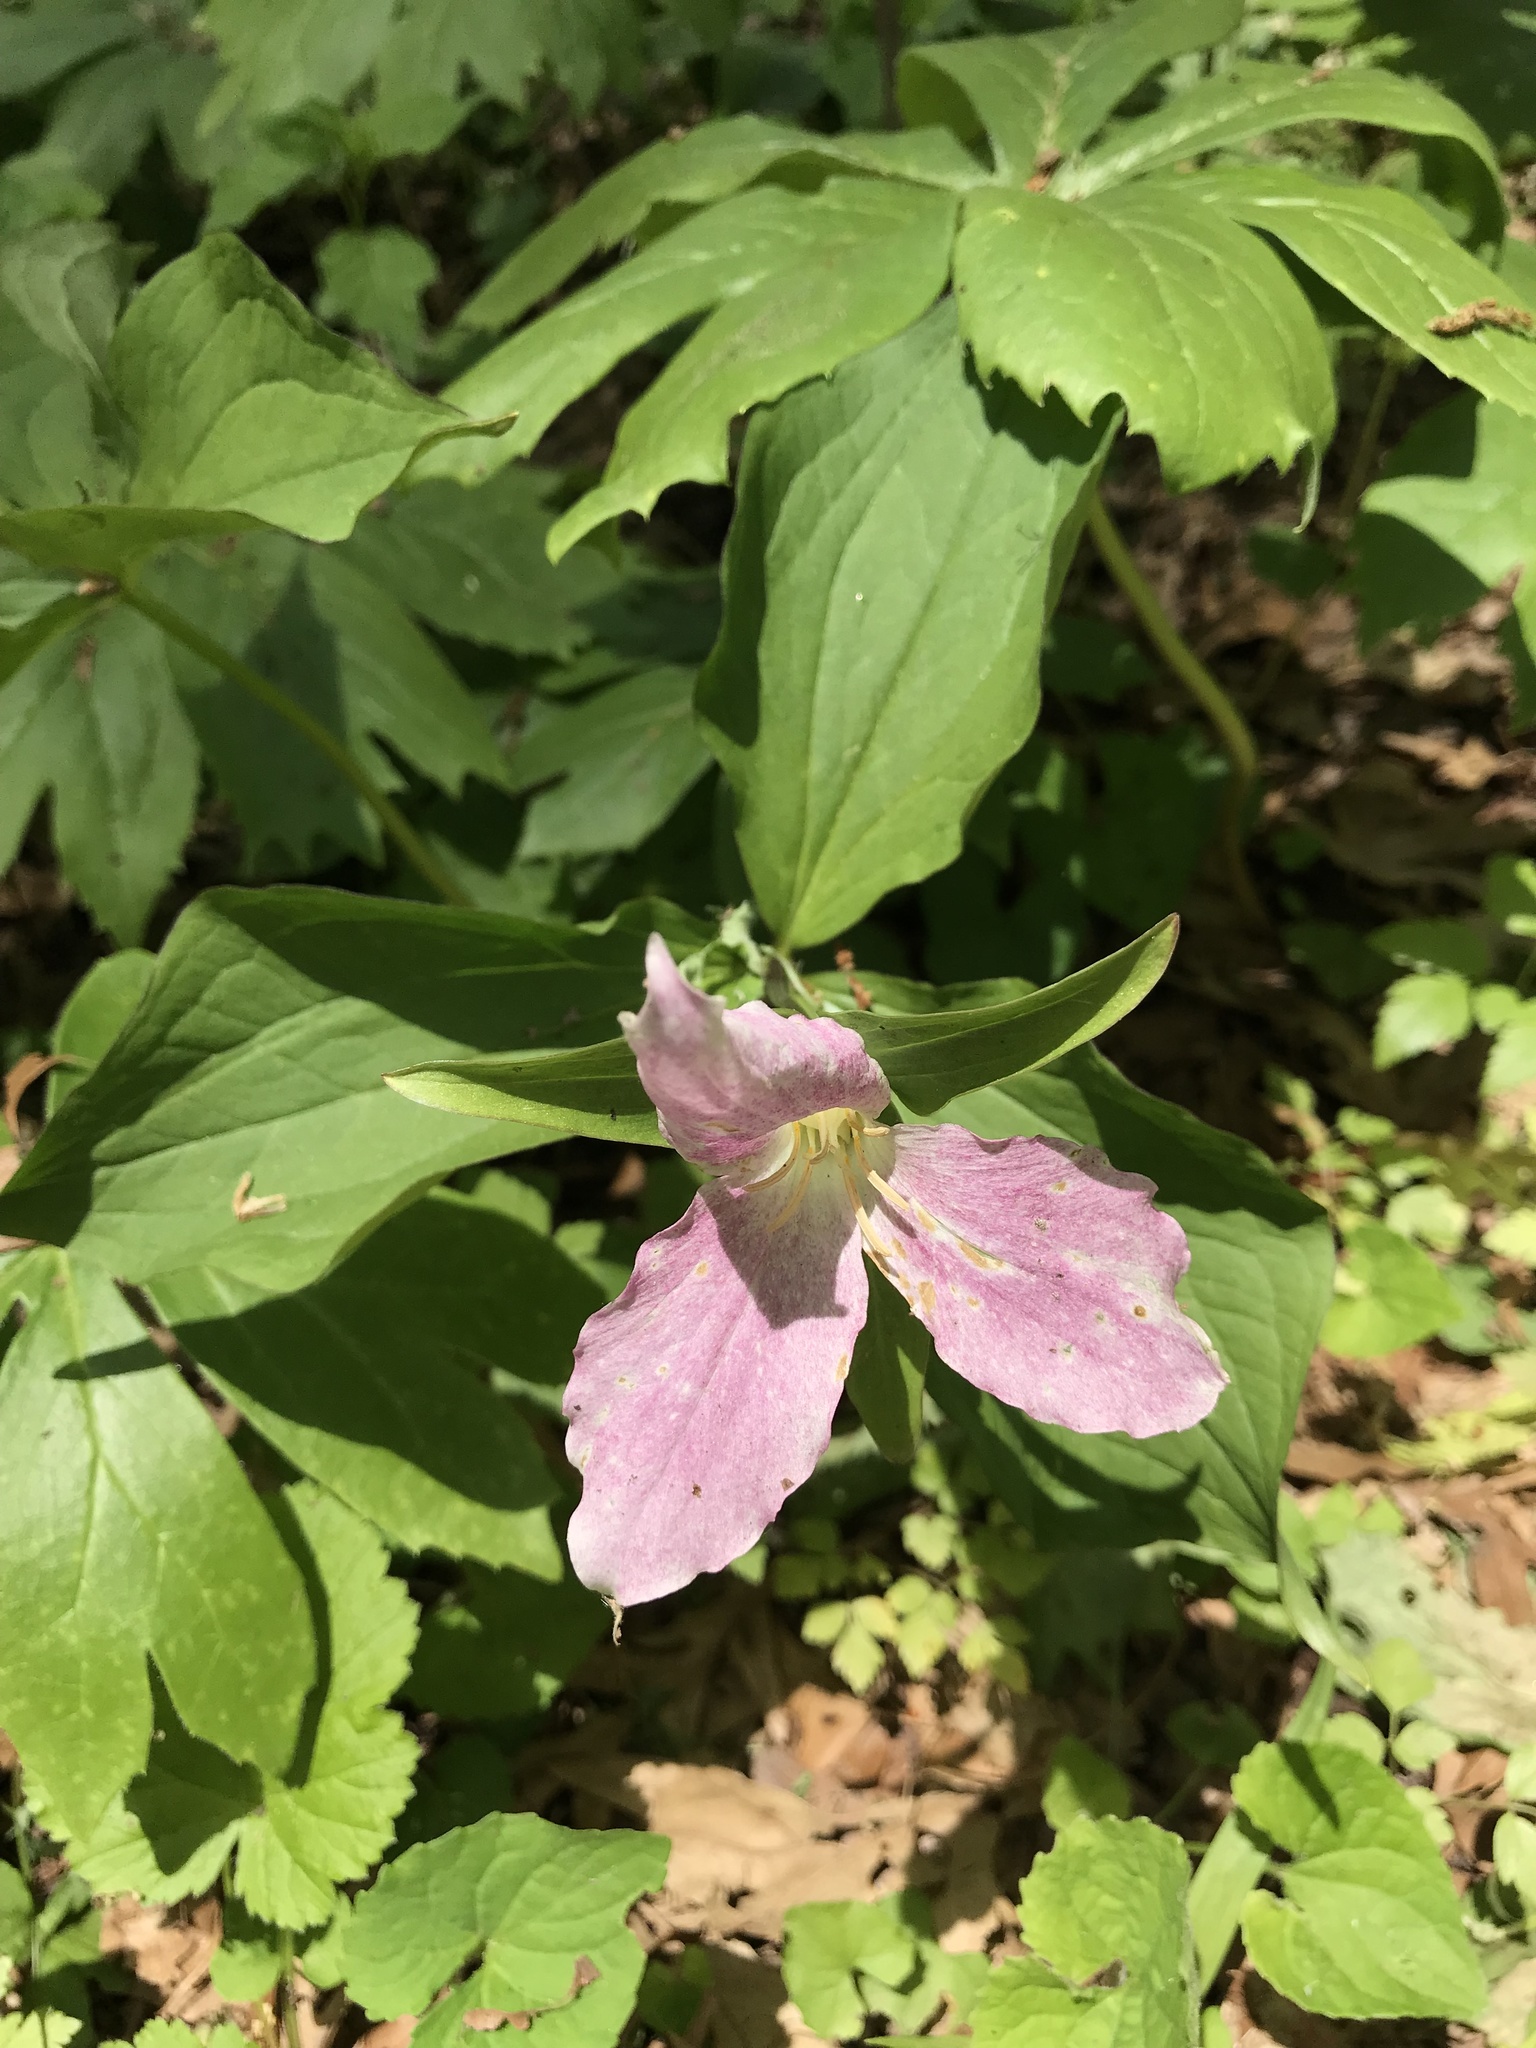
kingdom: Plantae
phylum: Tracheophyta
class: Liliopsida
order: Liliales
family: Melanthiaceae
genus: Trillium
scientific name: Trillium grandiflorum
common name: Great white trillium
